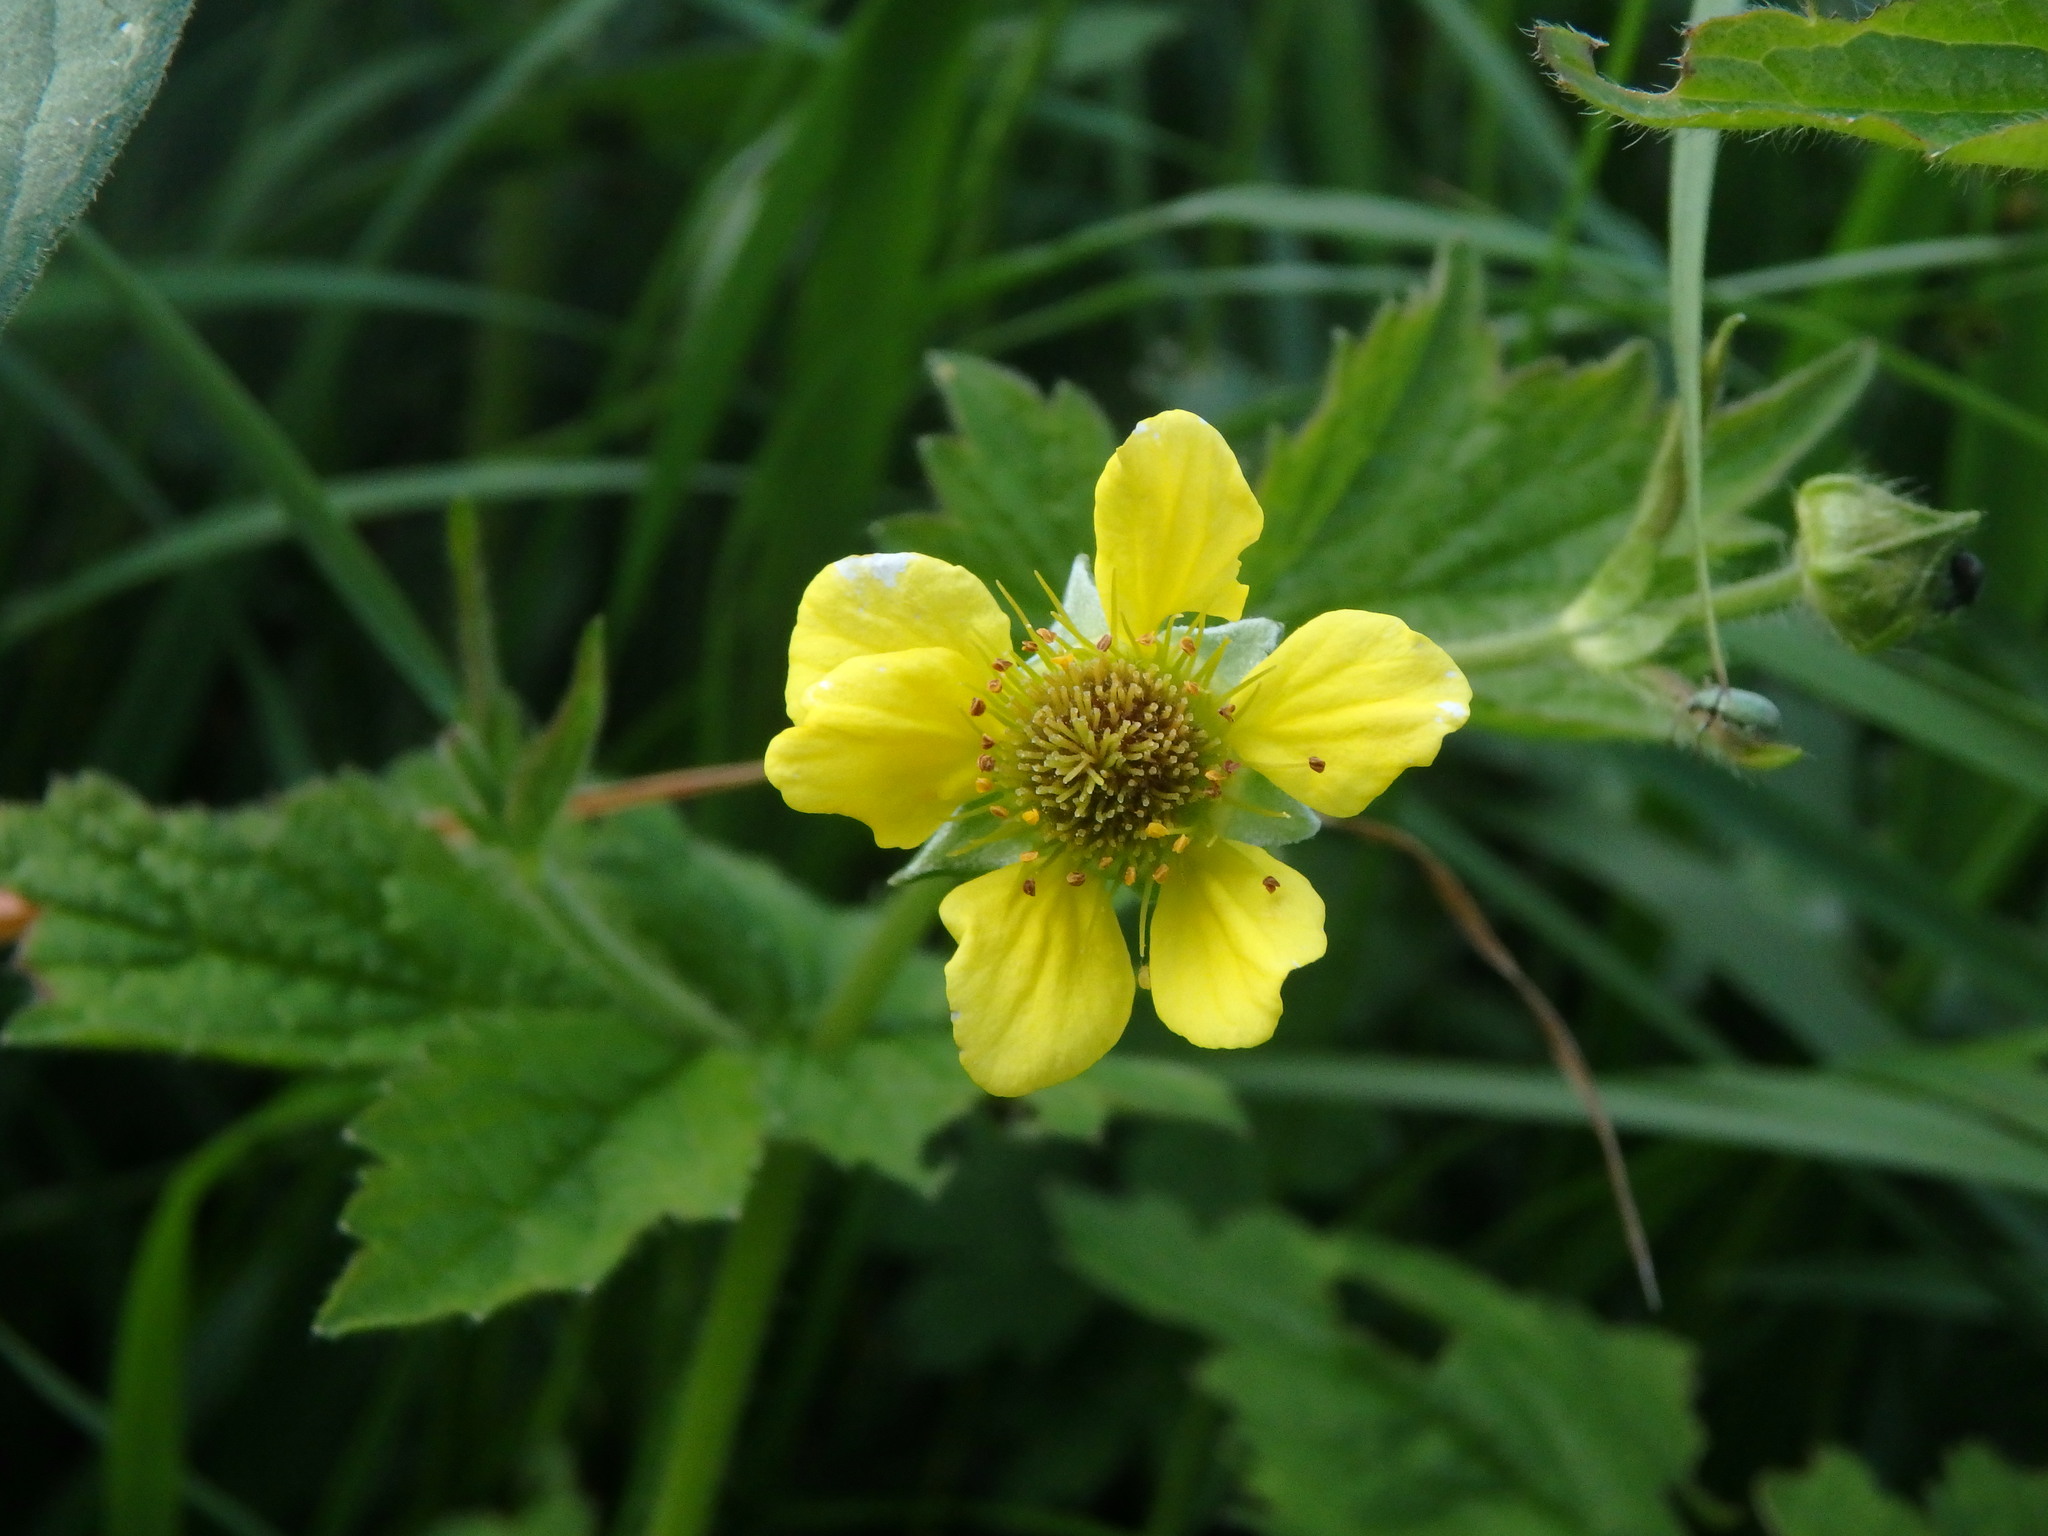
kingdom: Plantae
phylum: Tracheophyta
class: Magnoliopsida
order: Rosales
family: Rosaceae
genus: Geum
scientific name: Geum urbanum
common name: Wood avens
